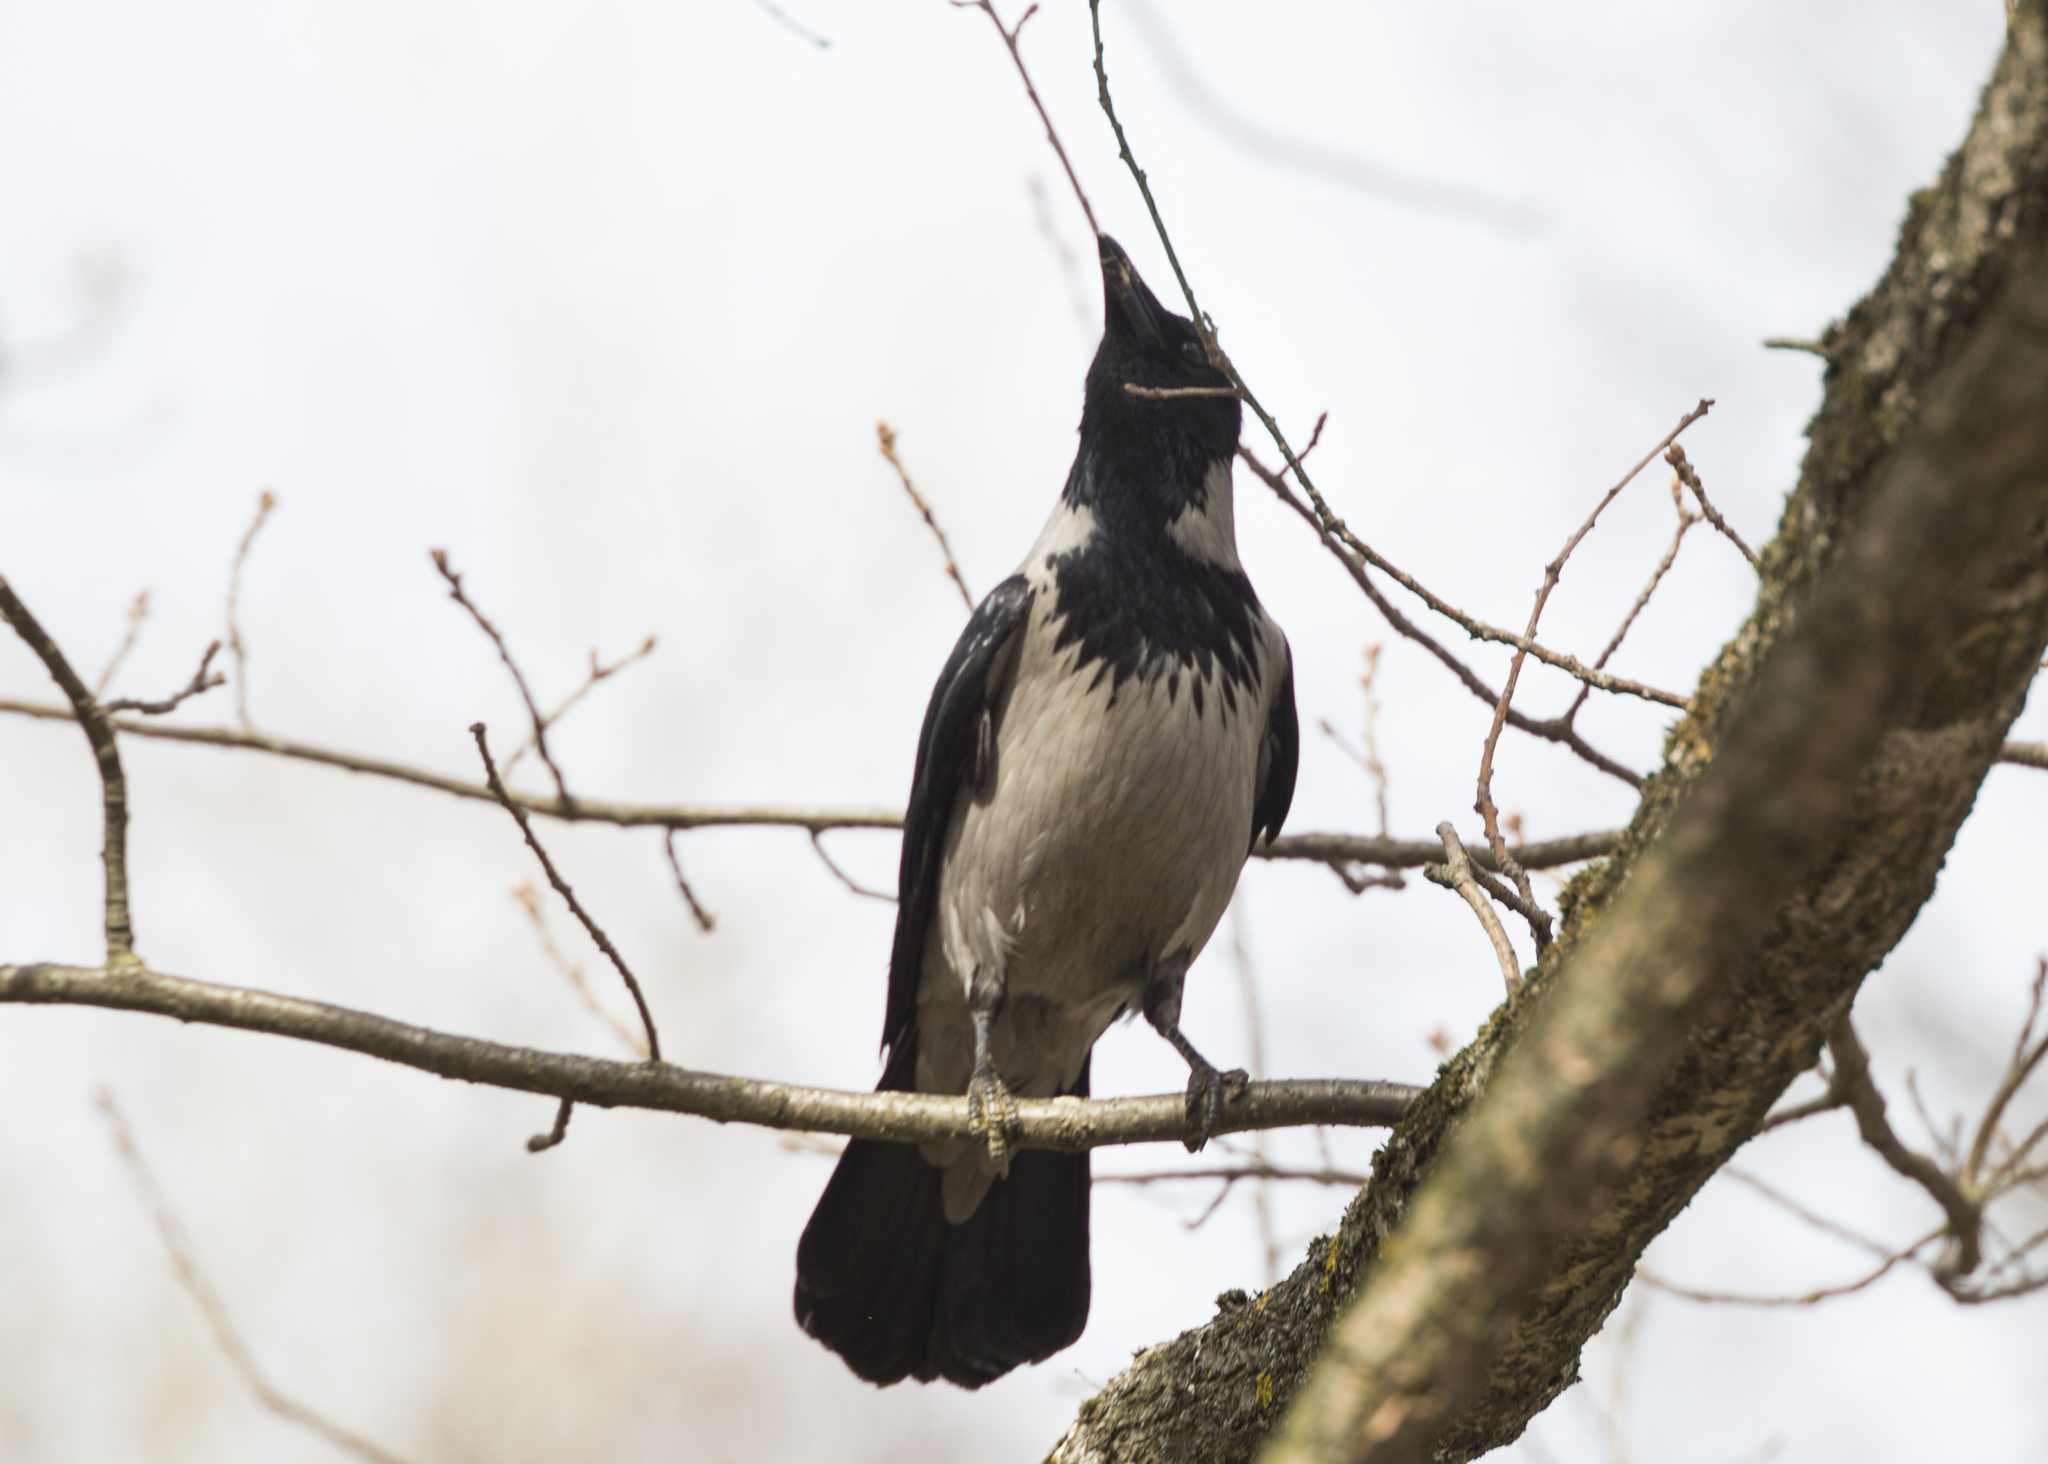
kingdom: Animalia
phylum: Chordata
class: Aves
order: Passeriformes
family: Corvidae
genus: Corvus
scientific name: Corvus cornix
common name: Hooded crow
